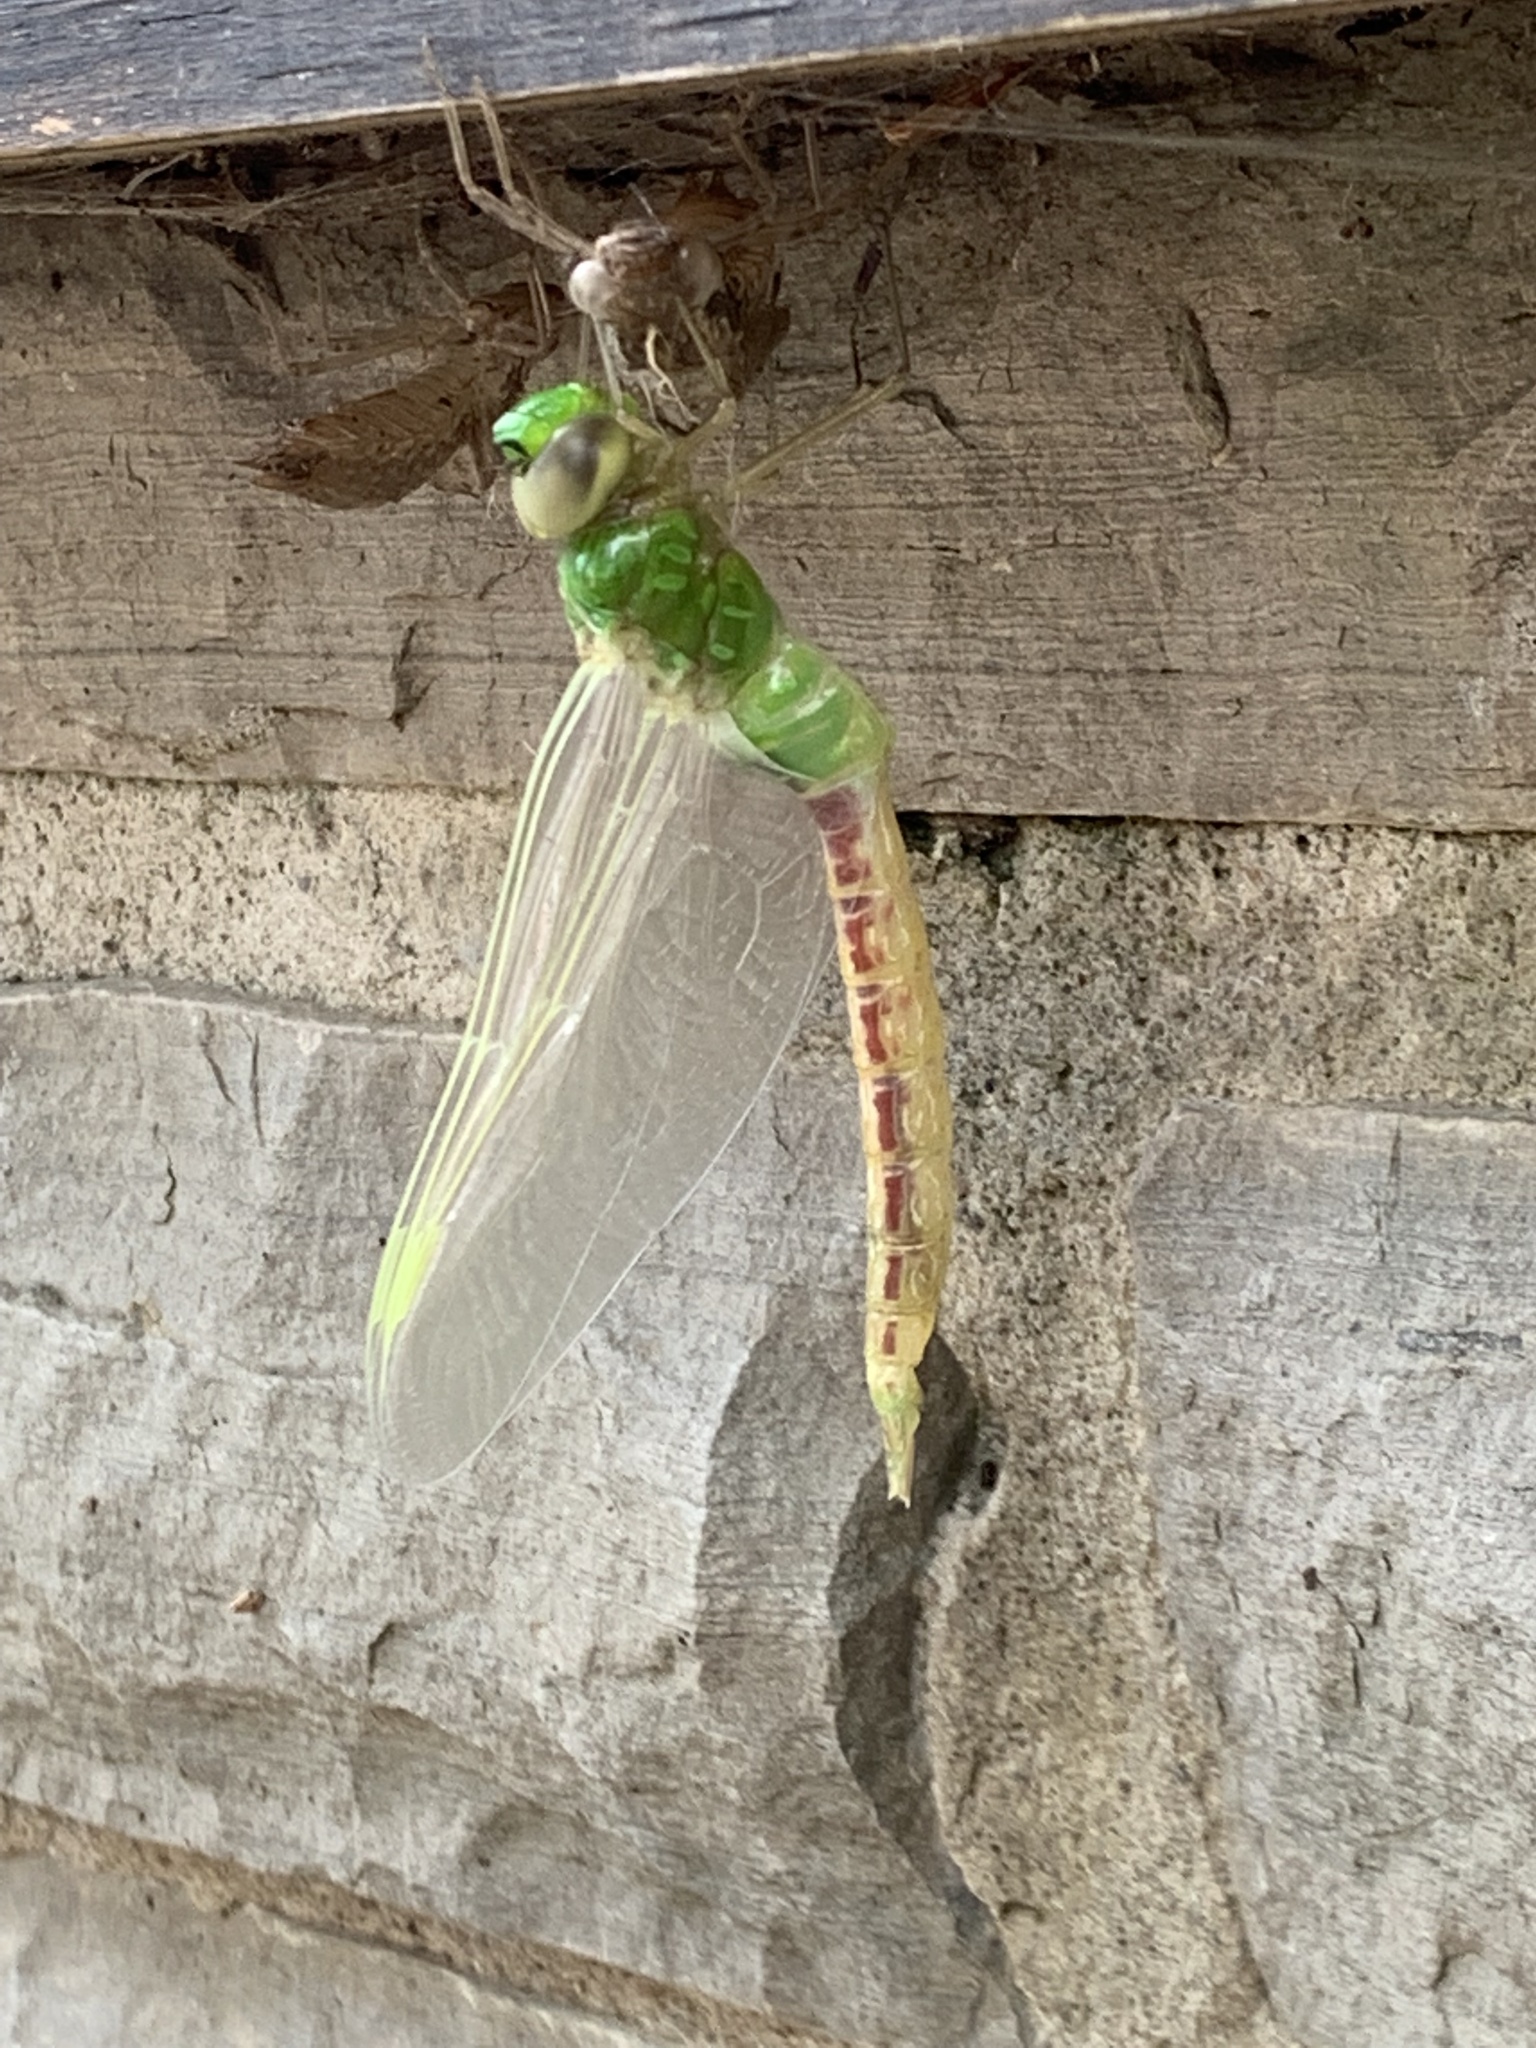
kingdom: Animalia
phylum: Arthropoda
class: Insecta
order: Odonata
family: Aeshnidae
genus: Anax
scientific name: Anax junius
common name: Common green darner
